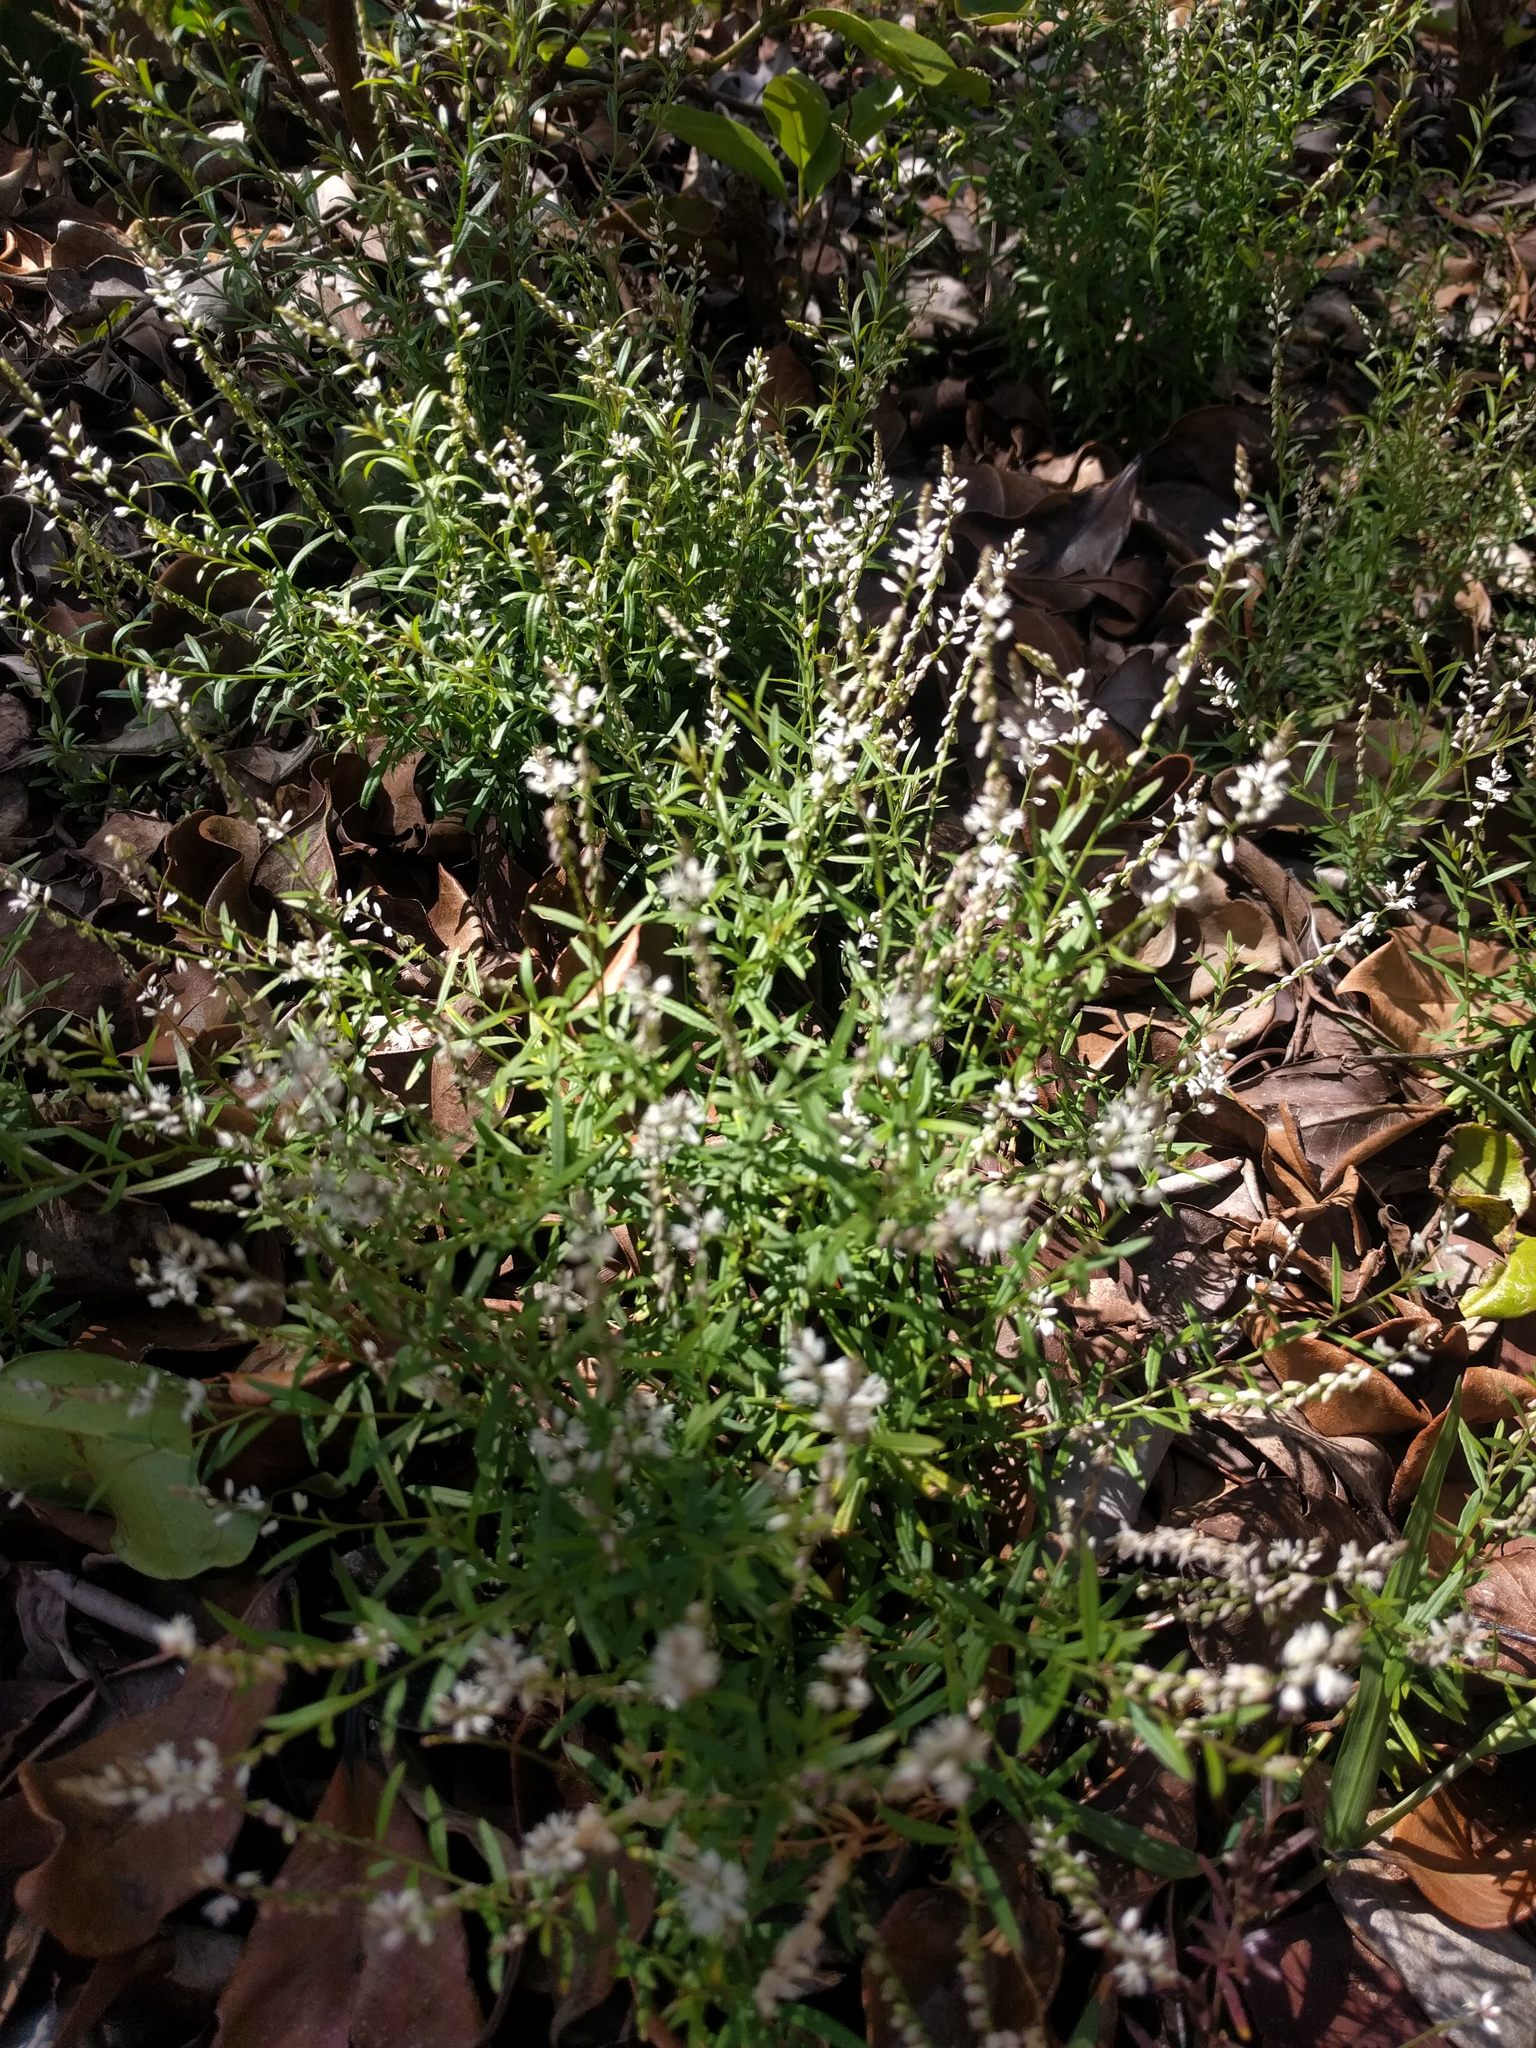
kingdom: Plantae
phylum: Tracheophyta
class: Magnoliopsida
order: Fabales
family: Polygalaceae
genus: Polygala
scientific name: Polygala paniculata
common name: Orosne
